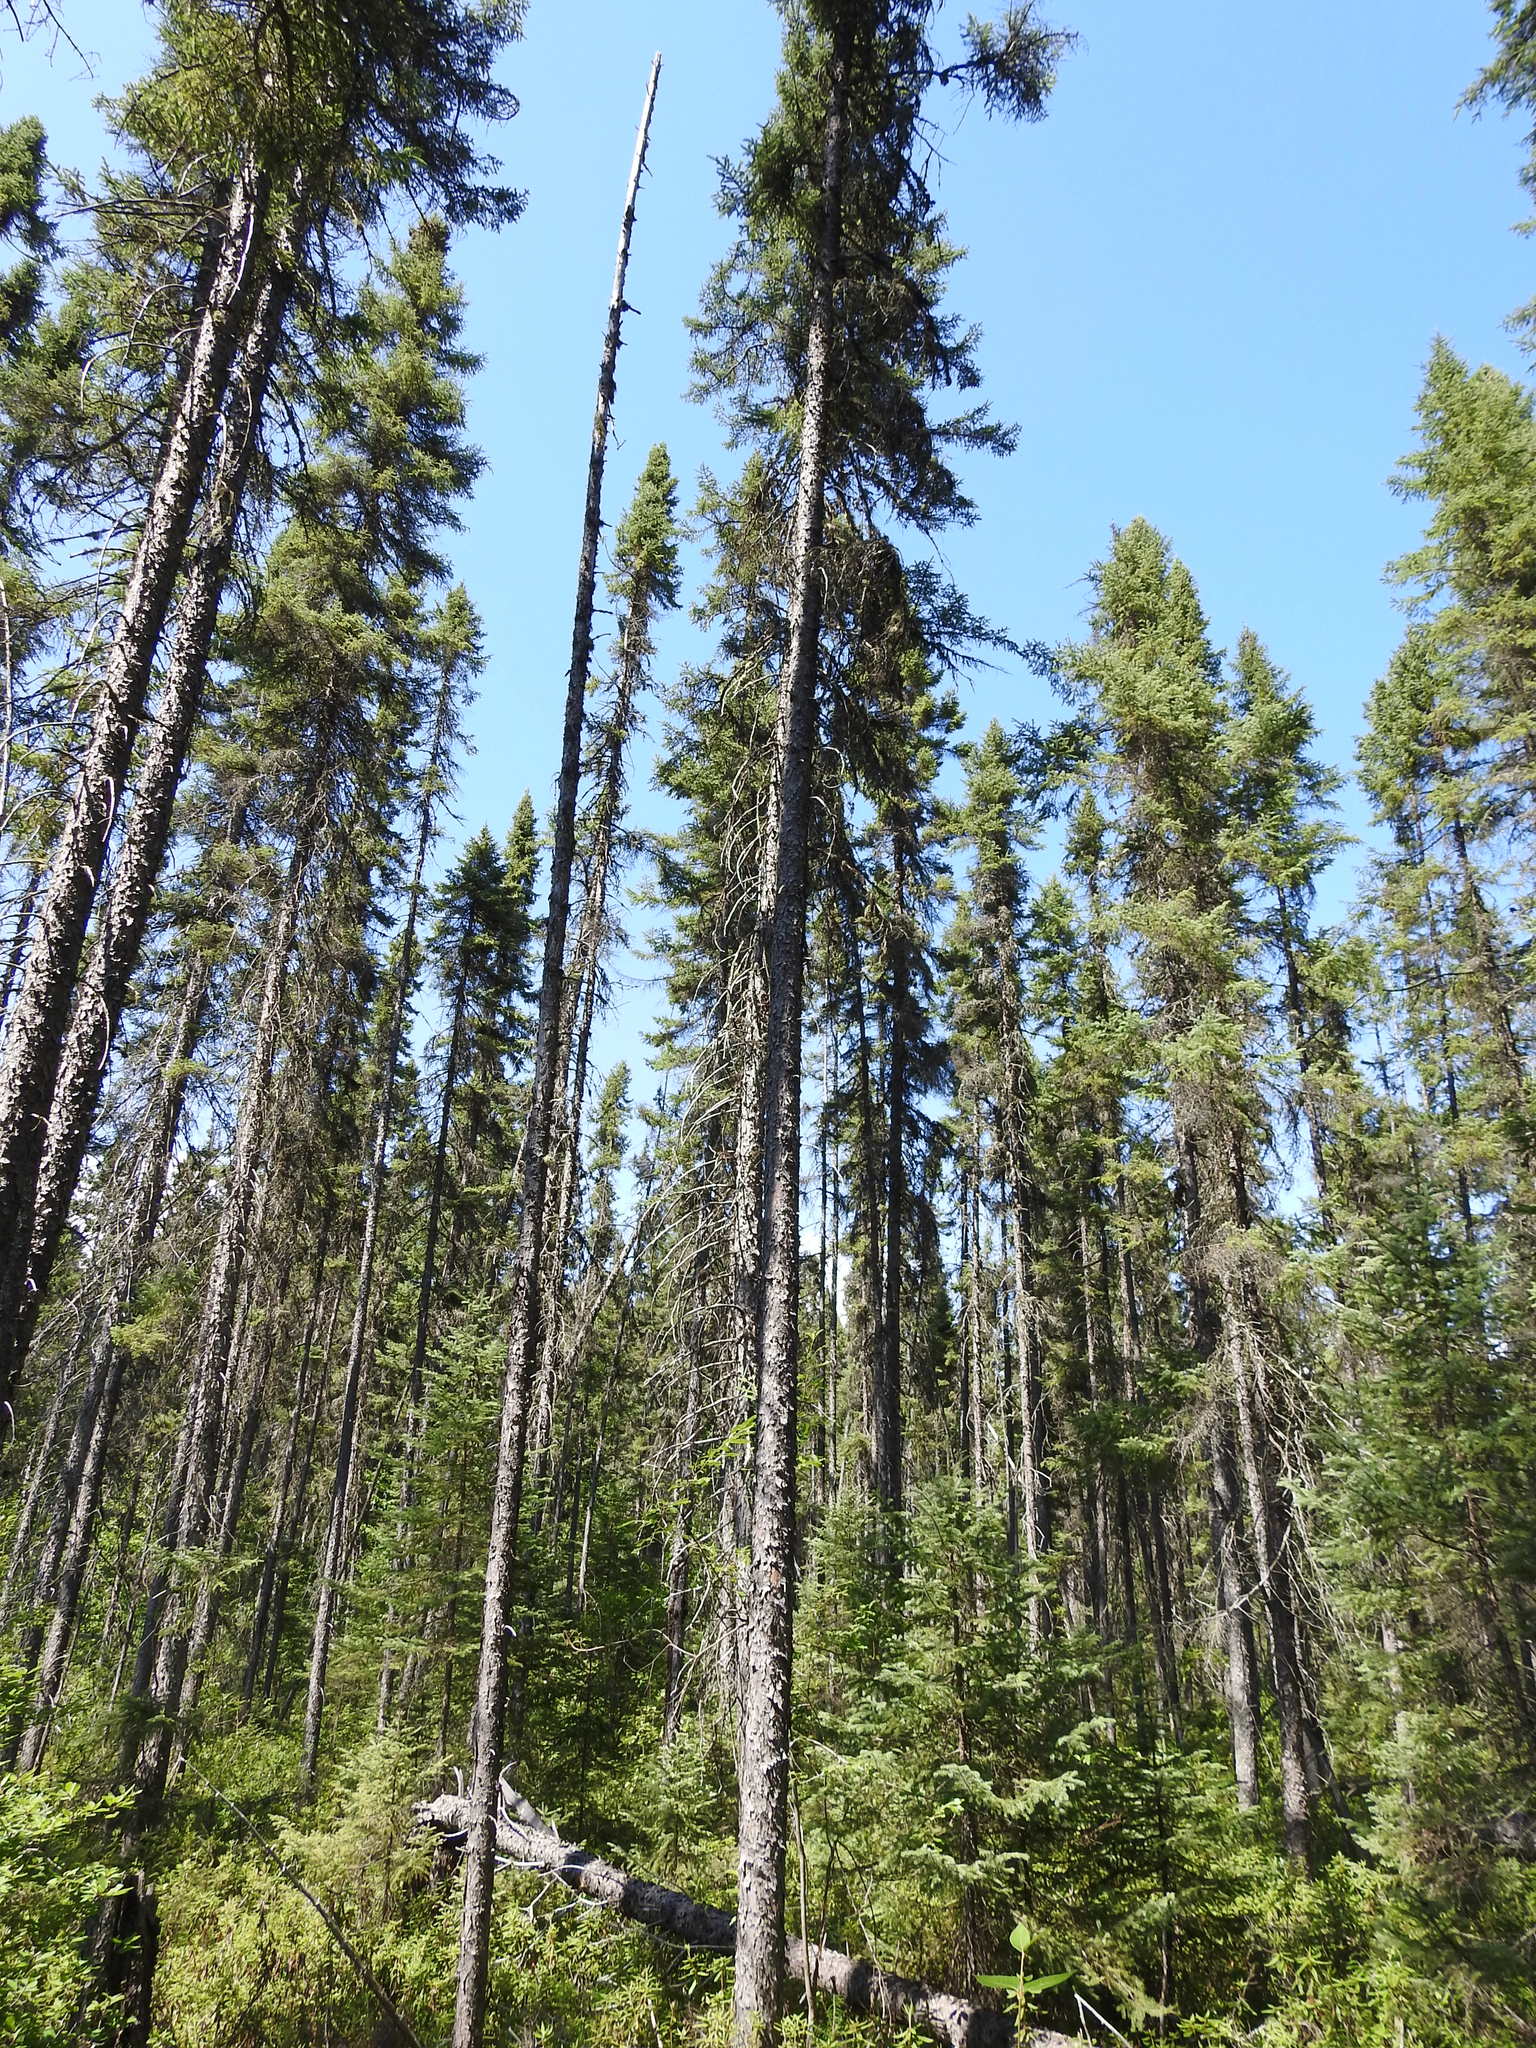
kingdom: Plantae
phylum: Tracheophyta
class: Pinopsida
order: Pinales
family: Pinaceae
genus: Picea
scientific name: Picea mariana
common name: Black spruce
